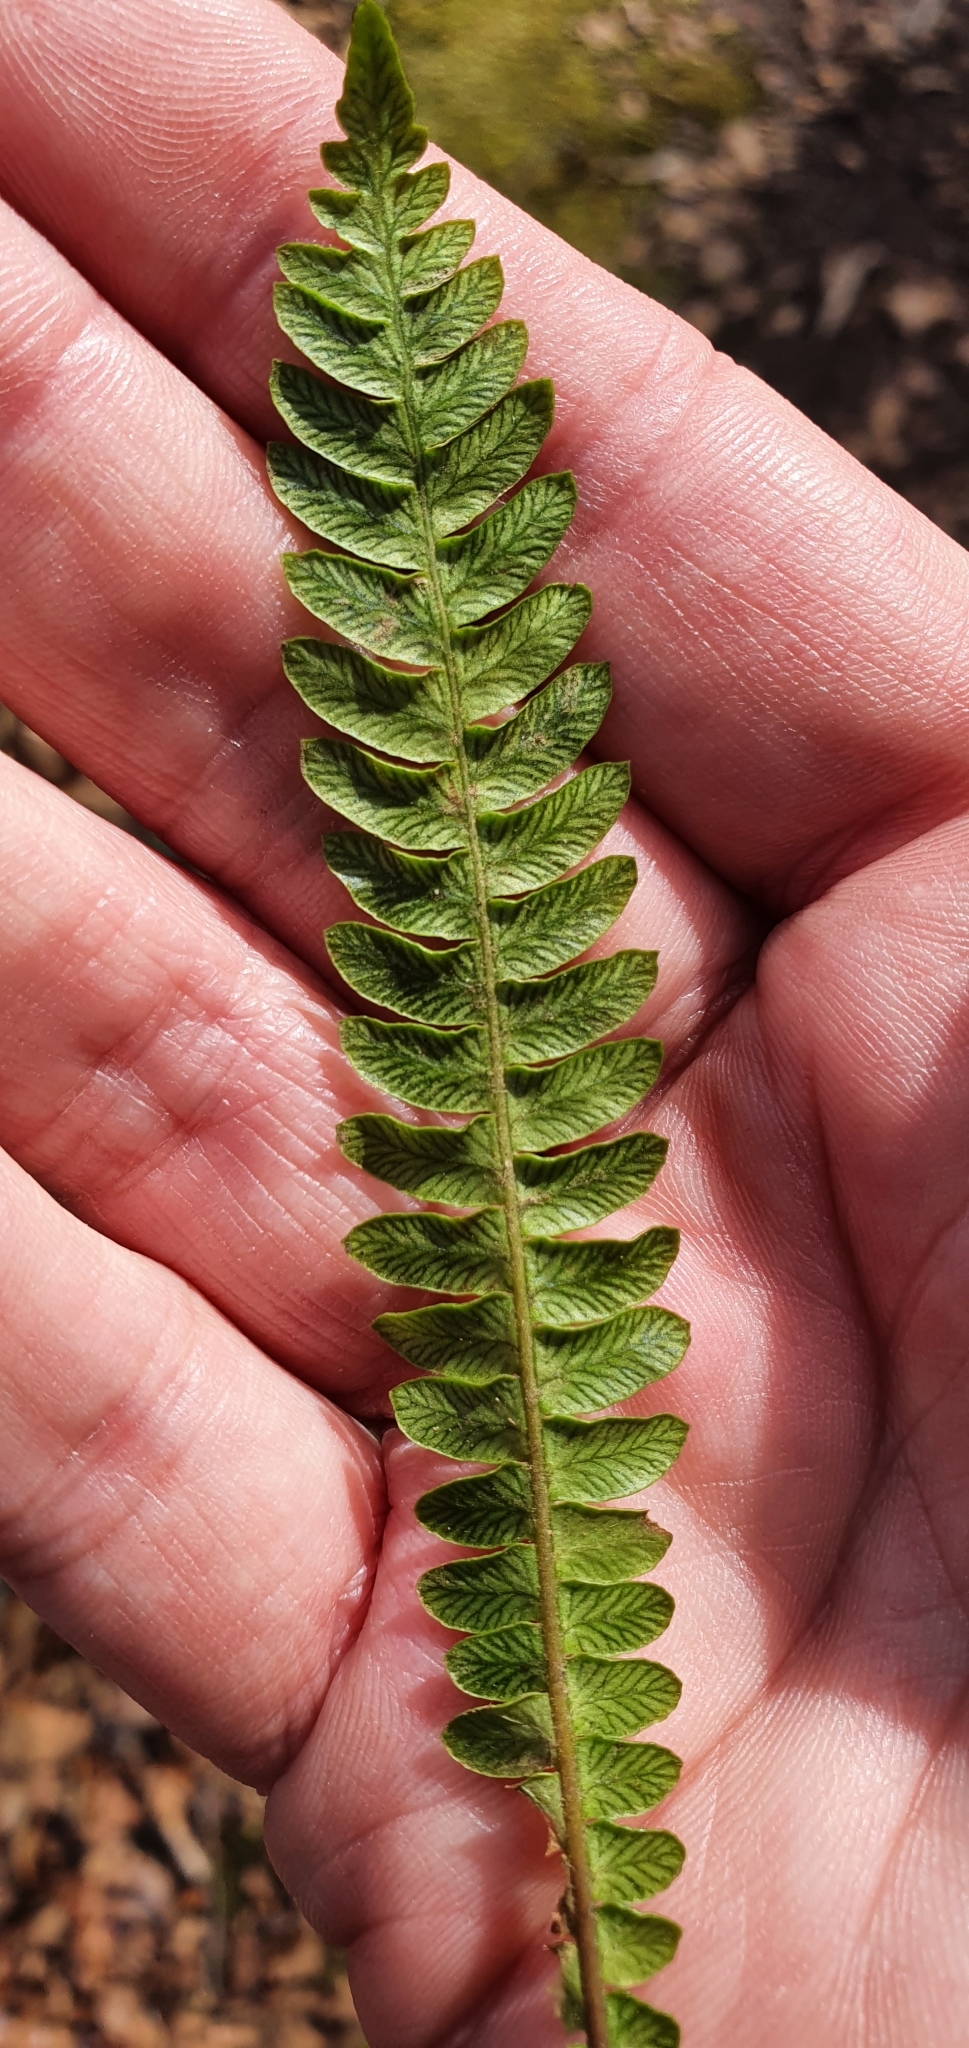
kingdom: Plantae
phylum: Tracheophyta
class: Polypodiopsida
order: Polypodiales
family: Blechnaceae
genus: Struthiopteris
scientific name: Struthiopteris spicant
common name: Deer fern
